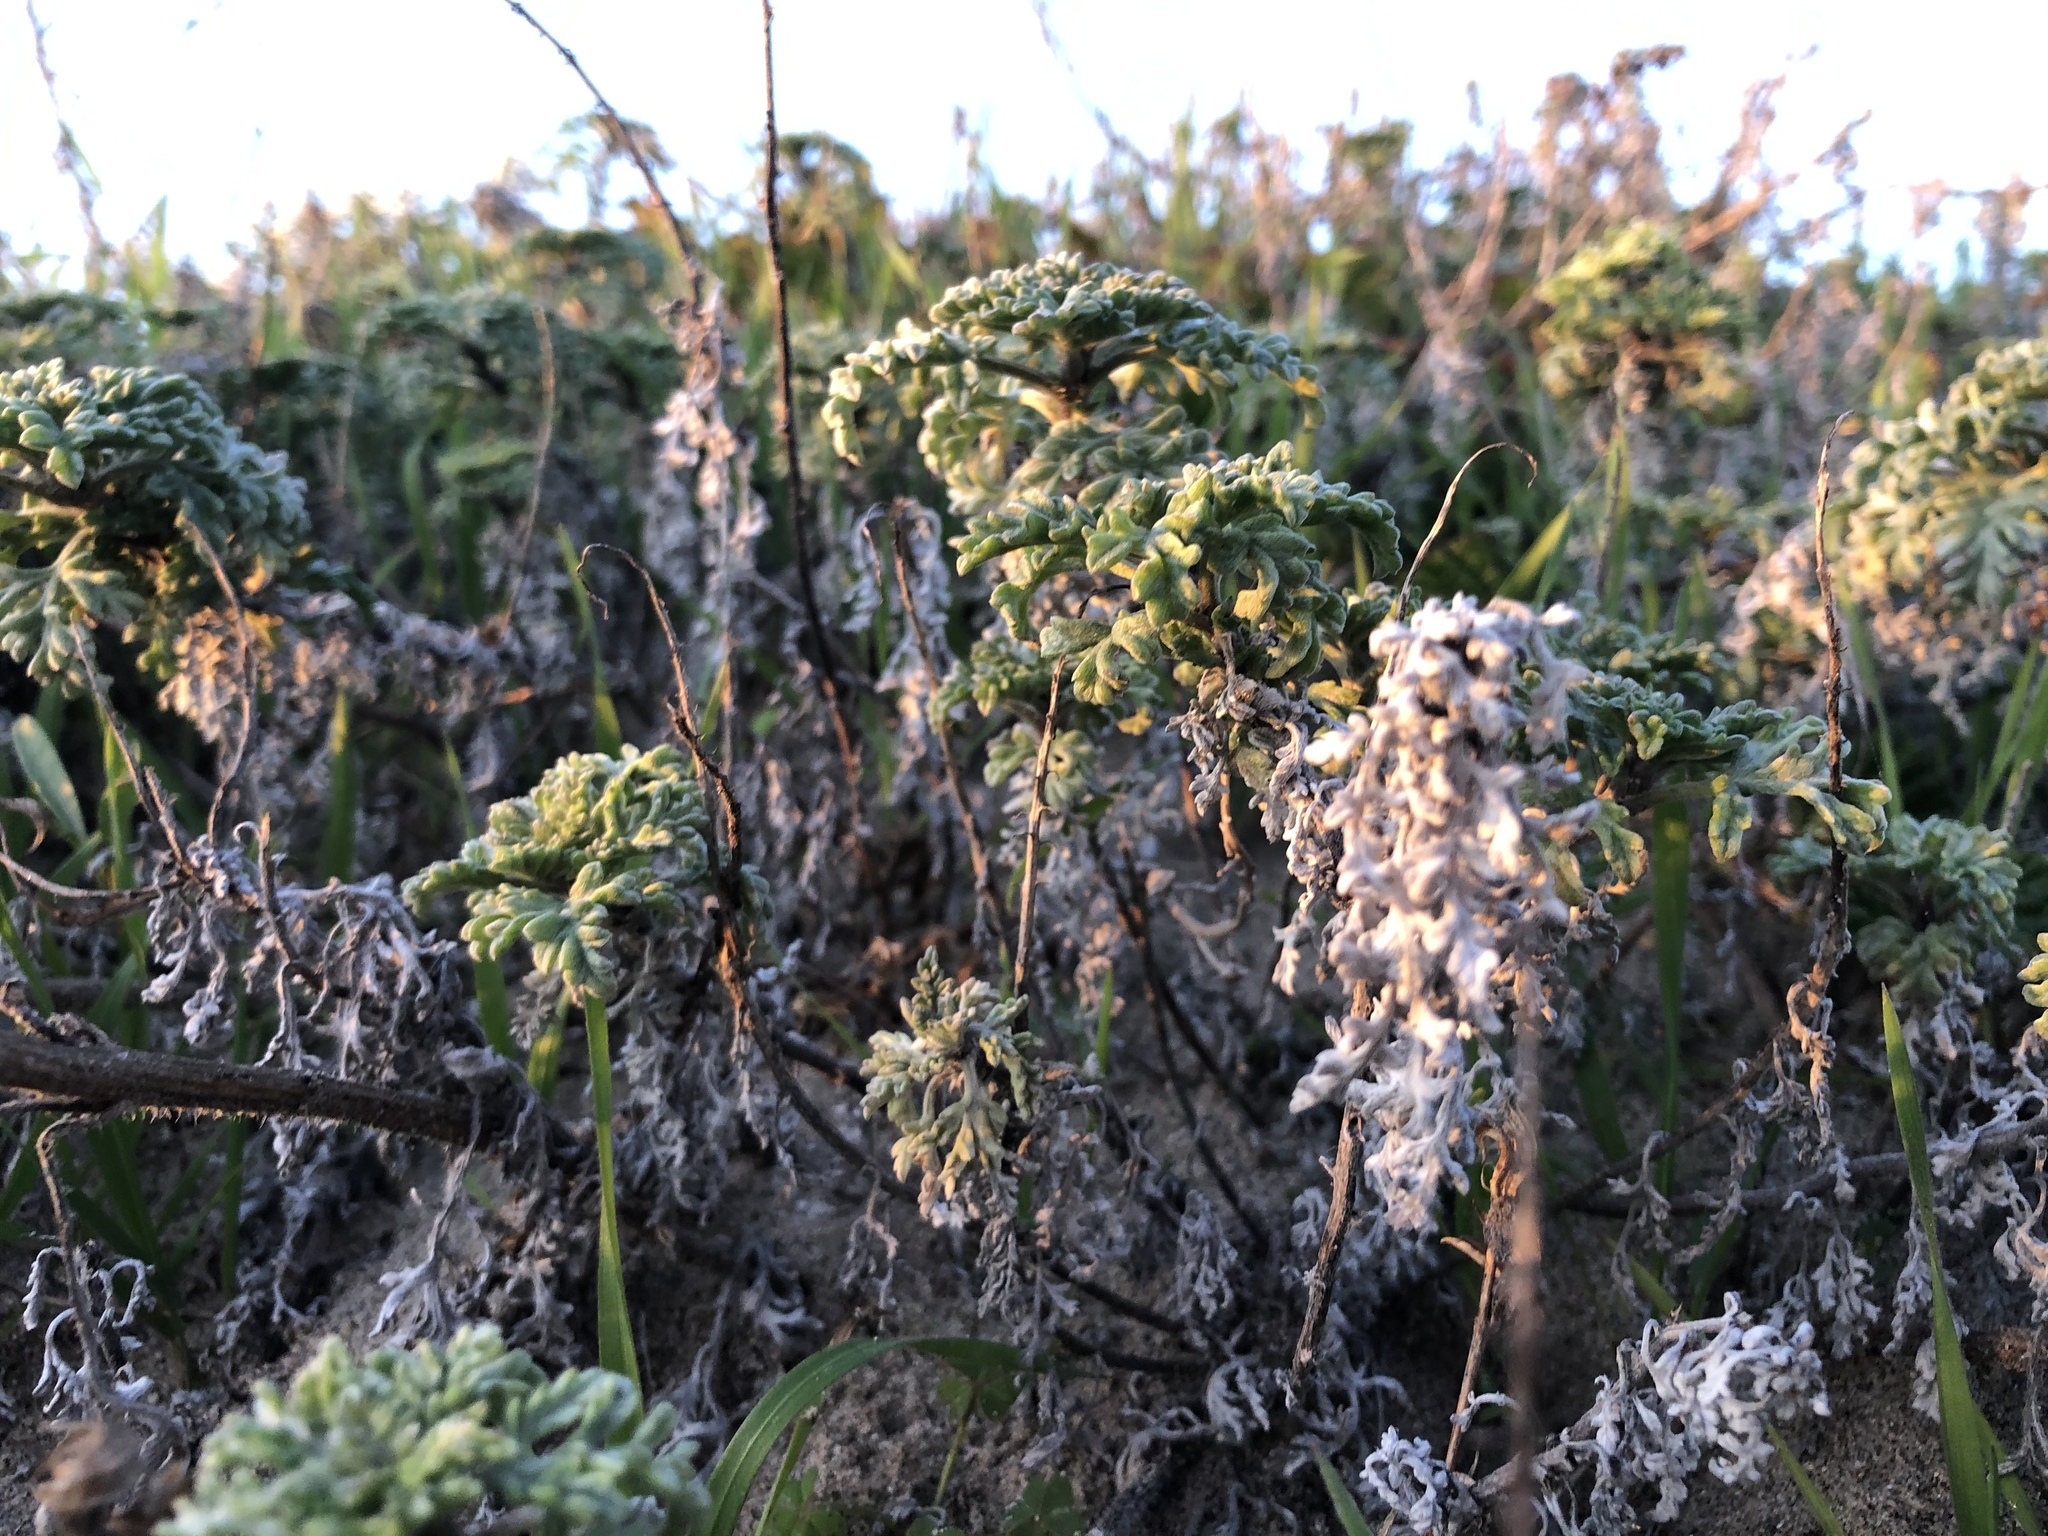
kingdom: Plantae
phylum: Tracheophyta
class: Magnoliopsida
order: Asterales
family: Asteraceae
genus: Ambrosia
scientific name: Ambrosia chamissonis
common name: Beachbur
